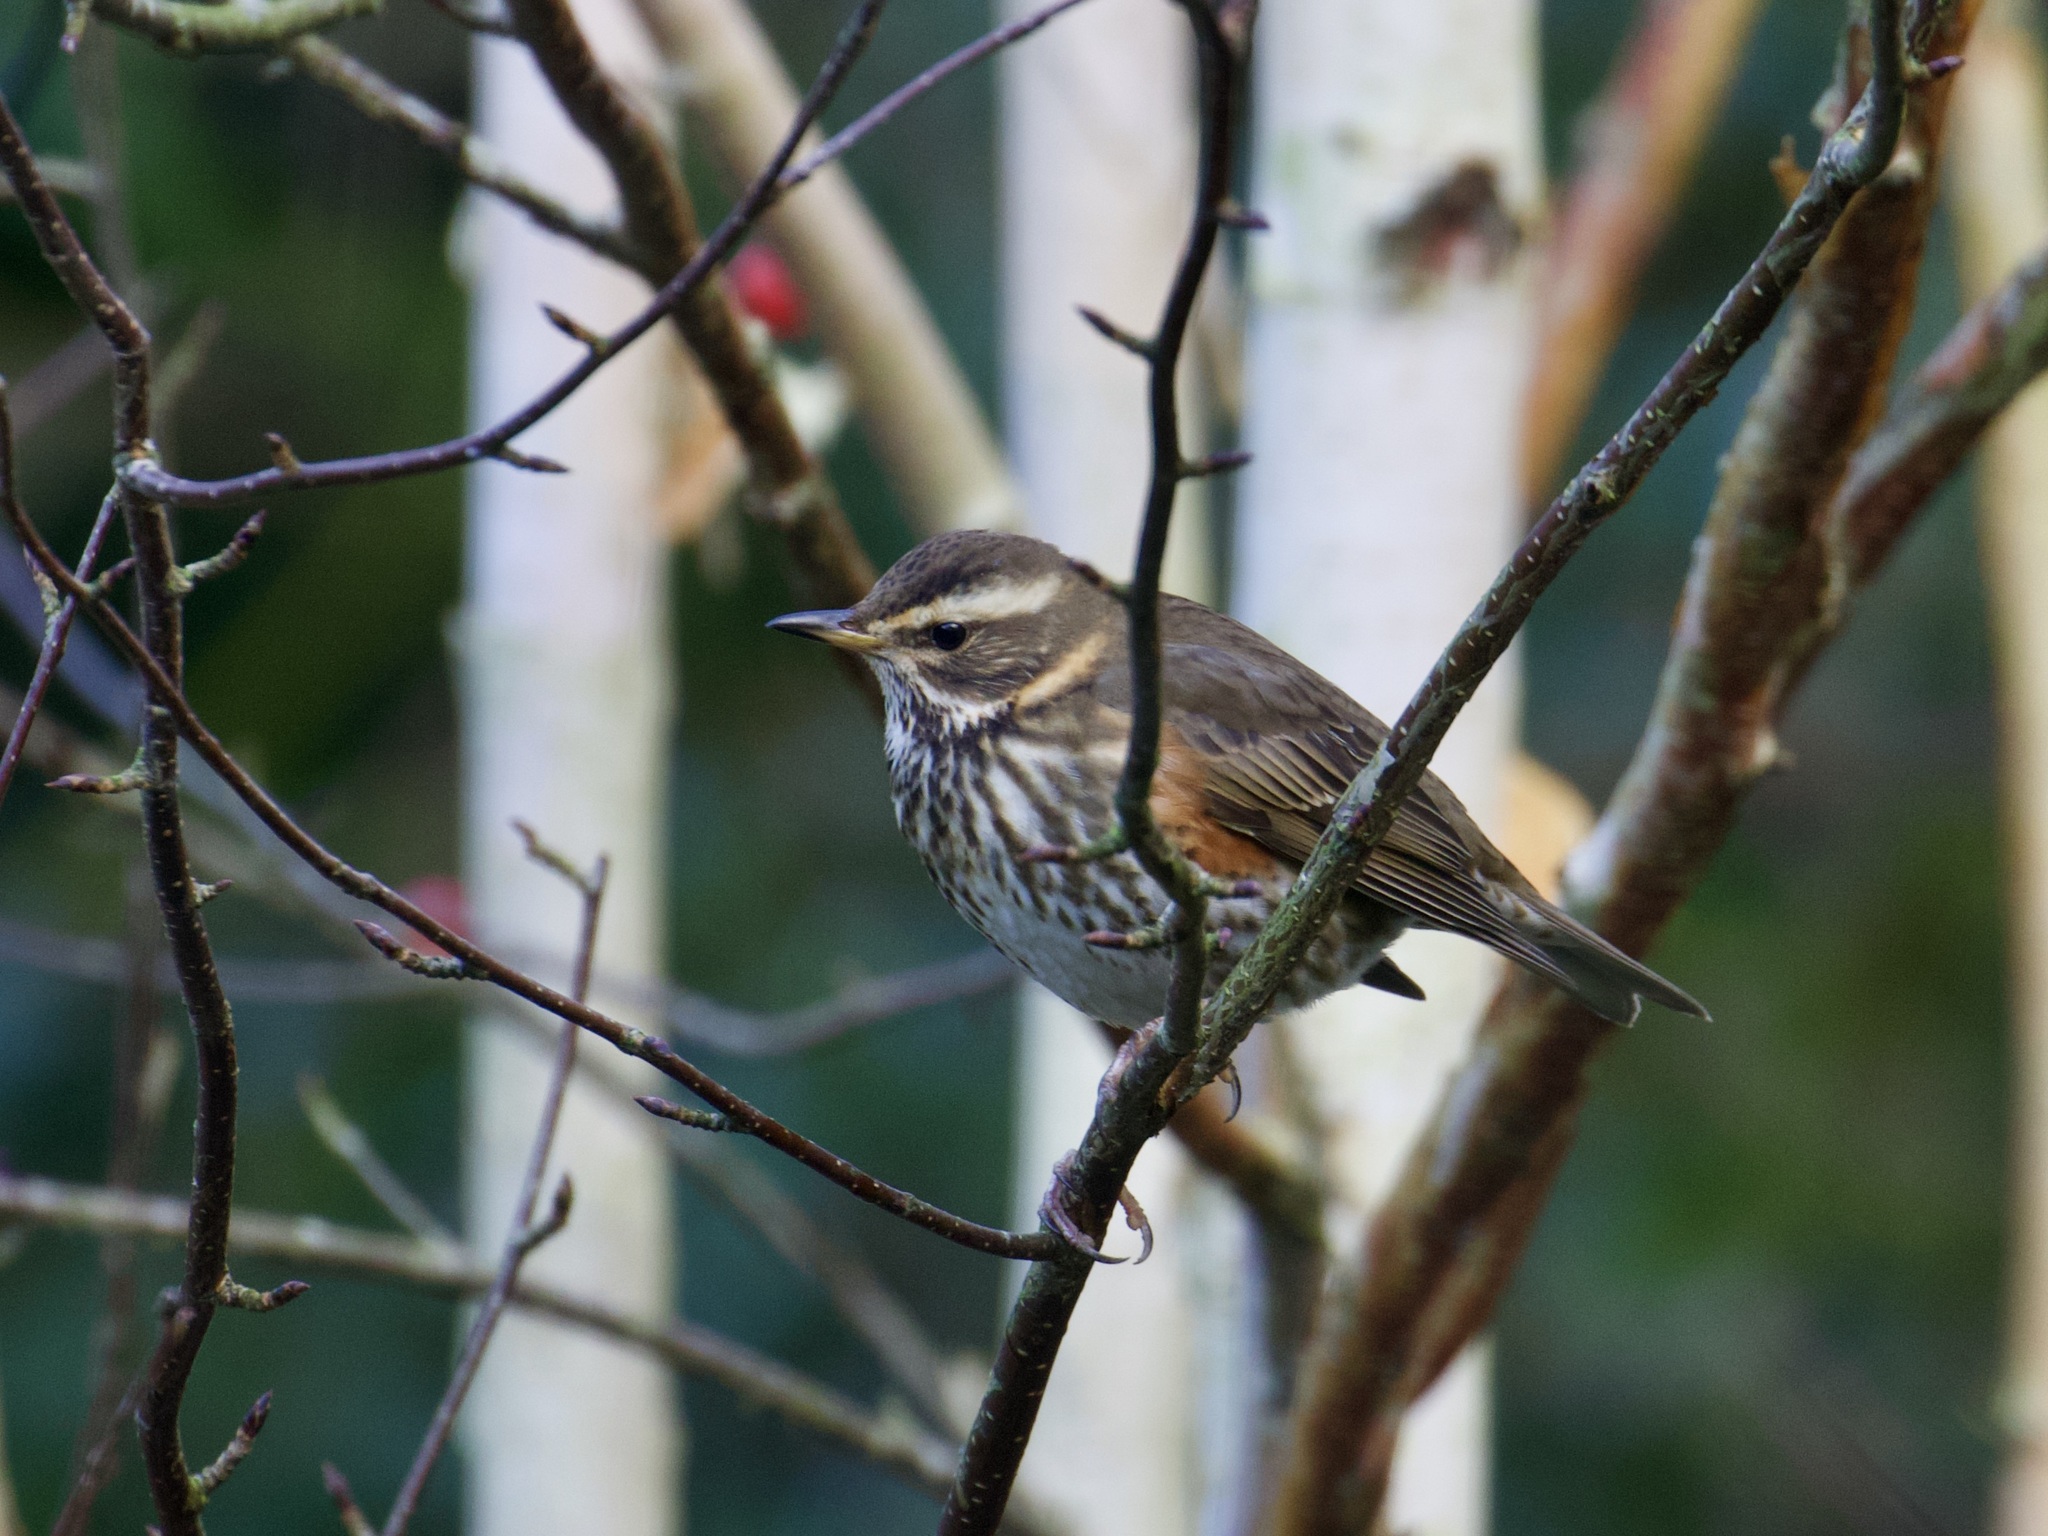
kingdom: Animalia
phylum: Chordata
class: Aves
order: Passeriformes
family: Turdidae
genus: Turdus
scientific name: Turdus iliacus
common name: Redwing
